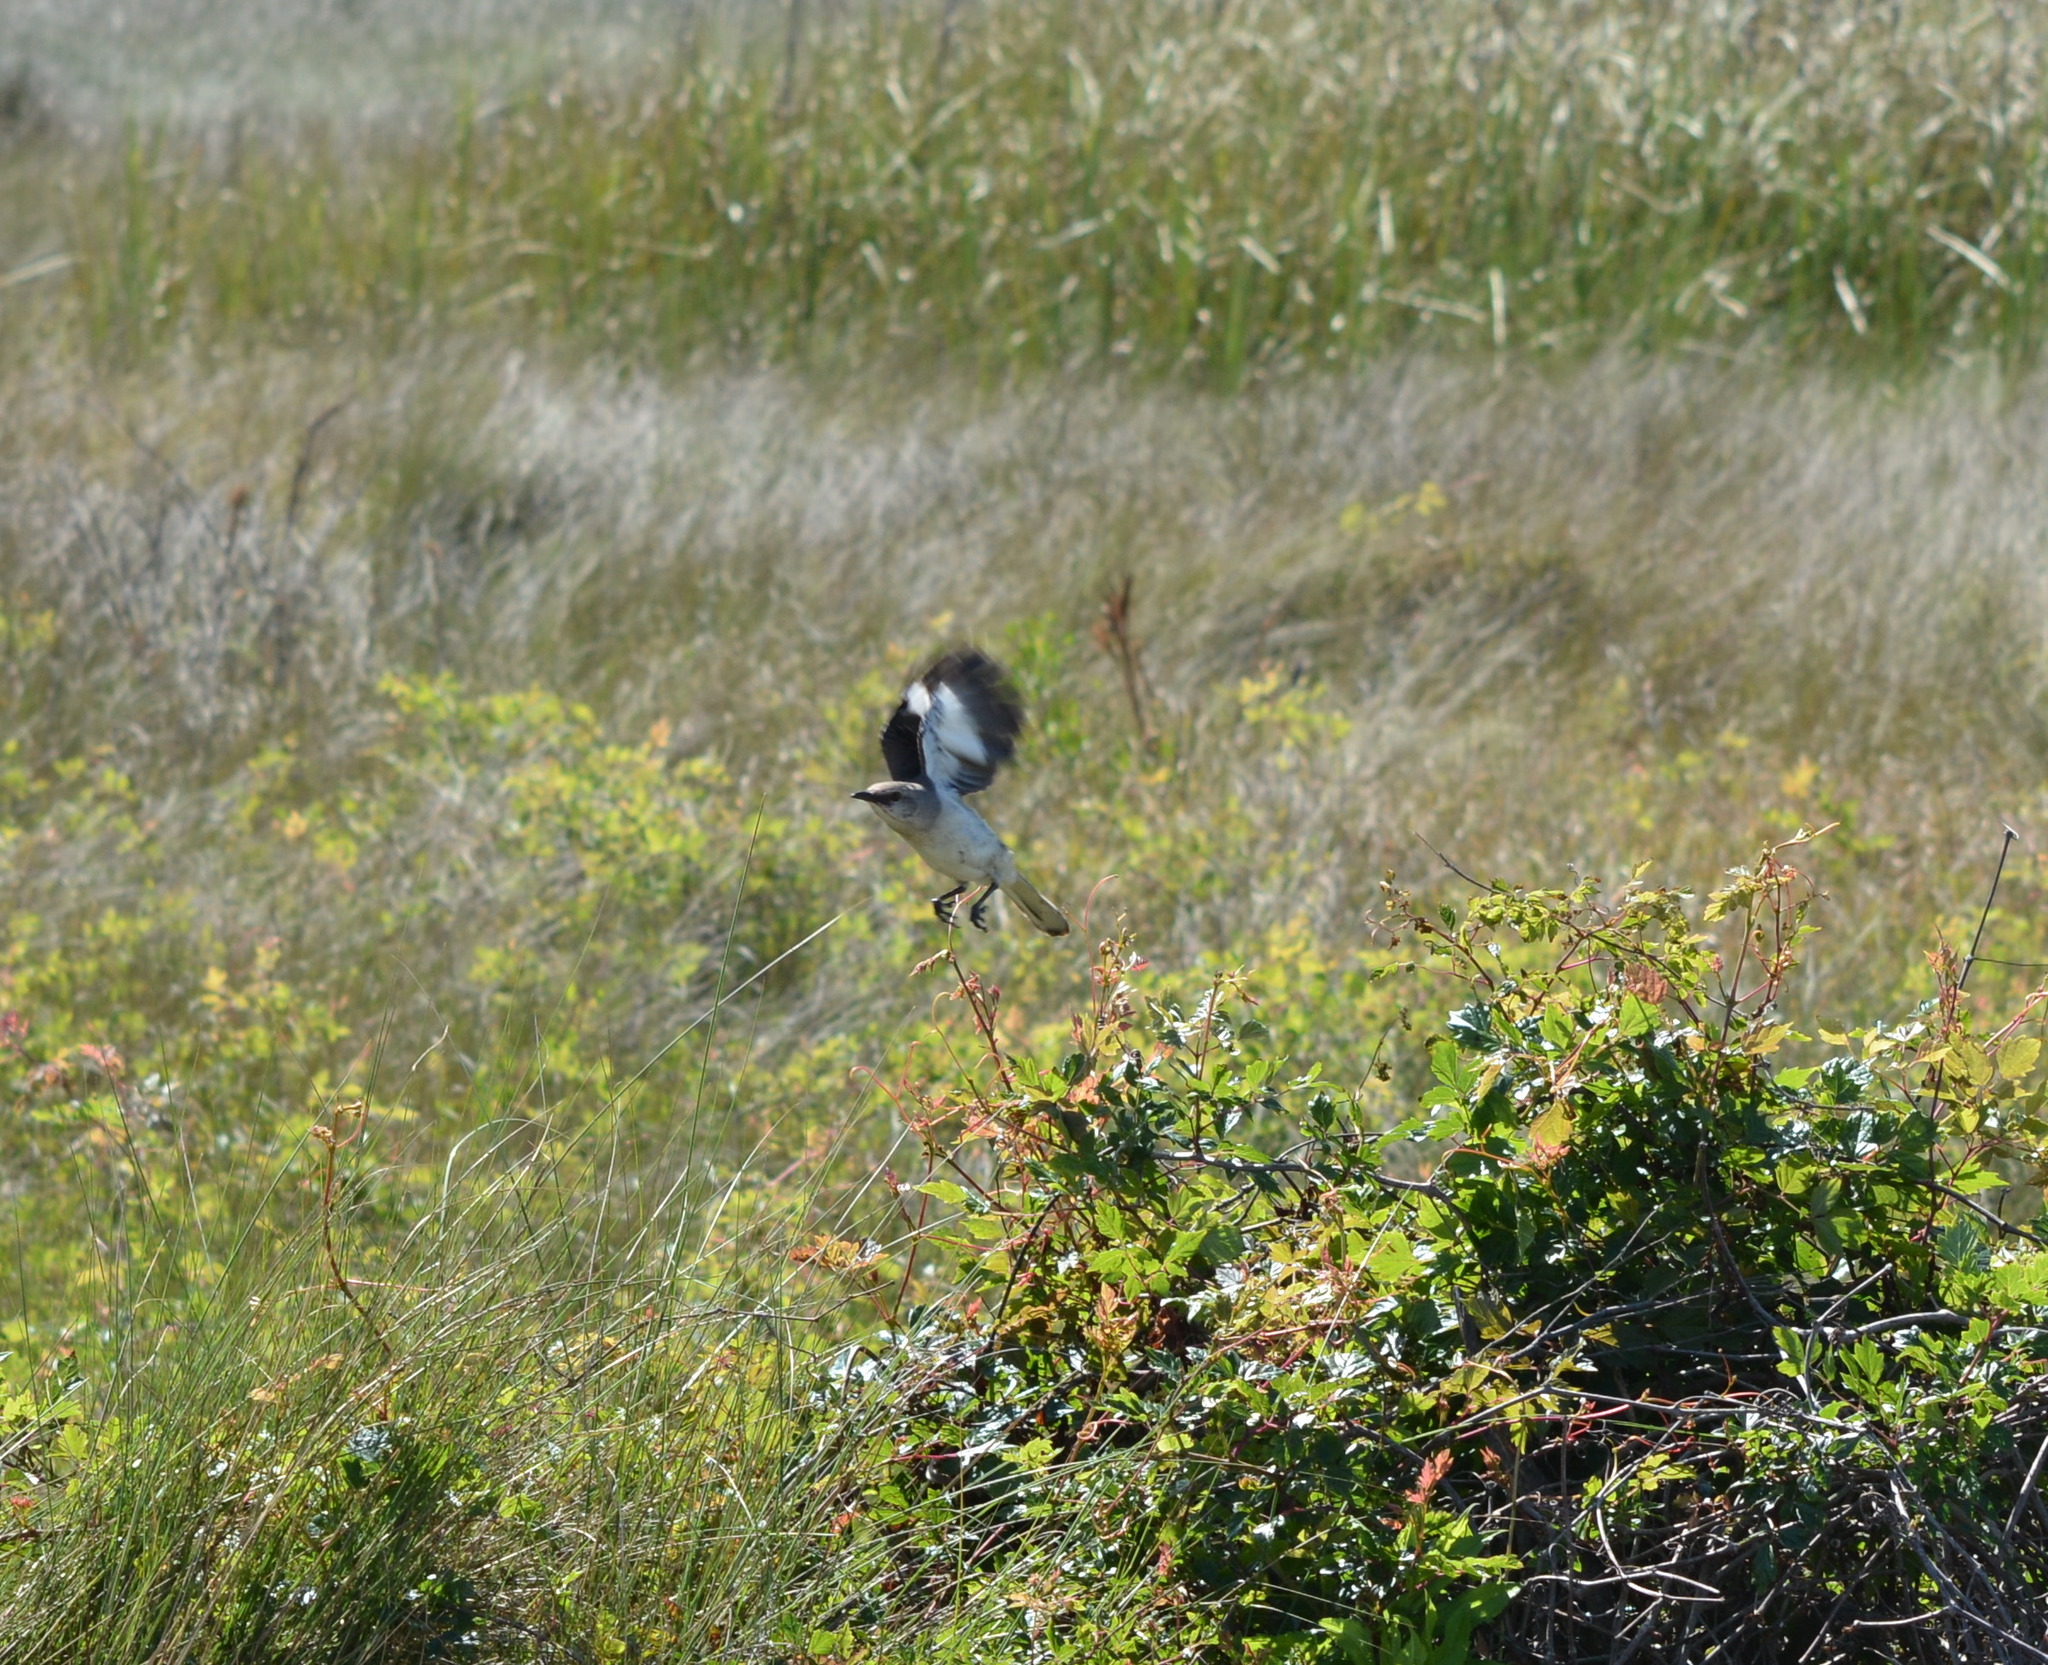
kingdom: Animalia
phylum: Chordata
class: Aves
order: Passeriformes
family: Mimidae
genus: Mimus
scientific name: Mimus polyglottos
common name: Northern mockingbird
